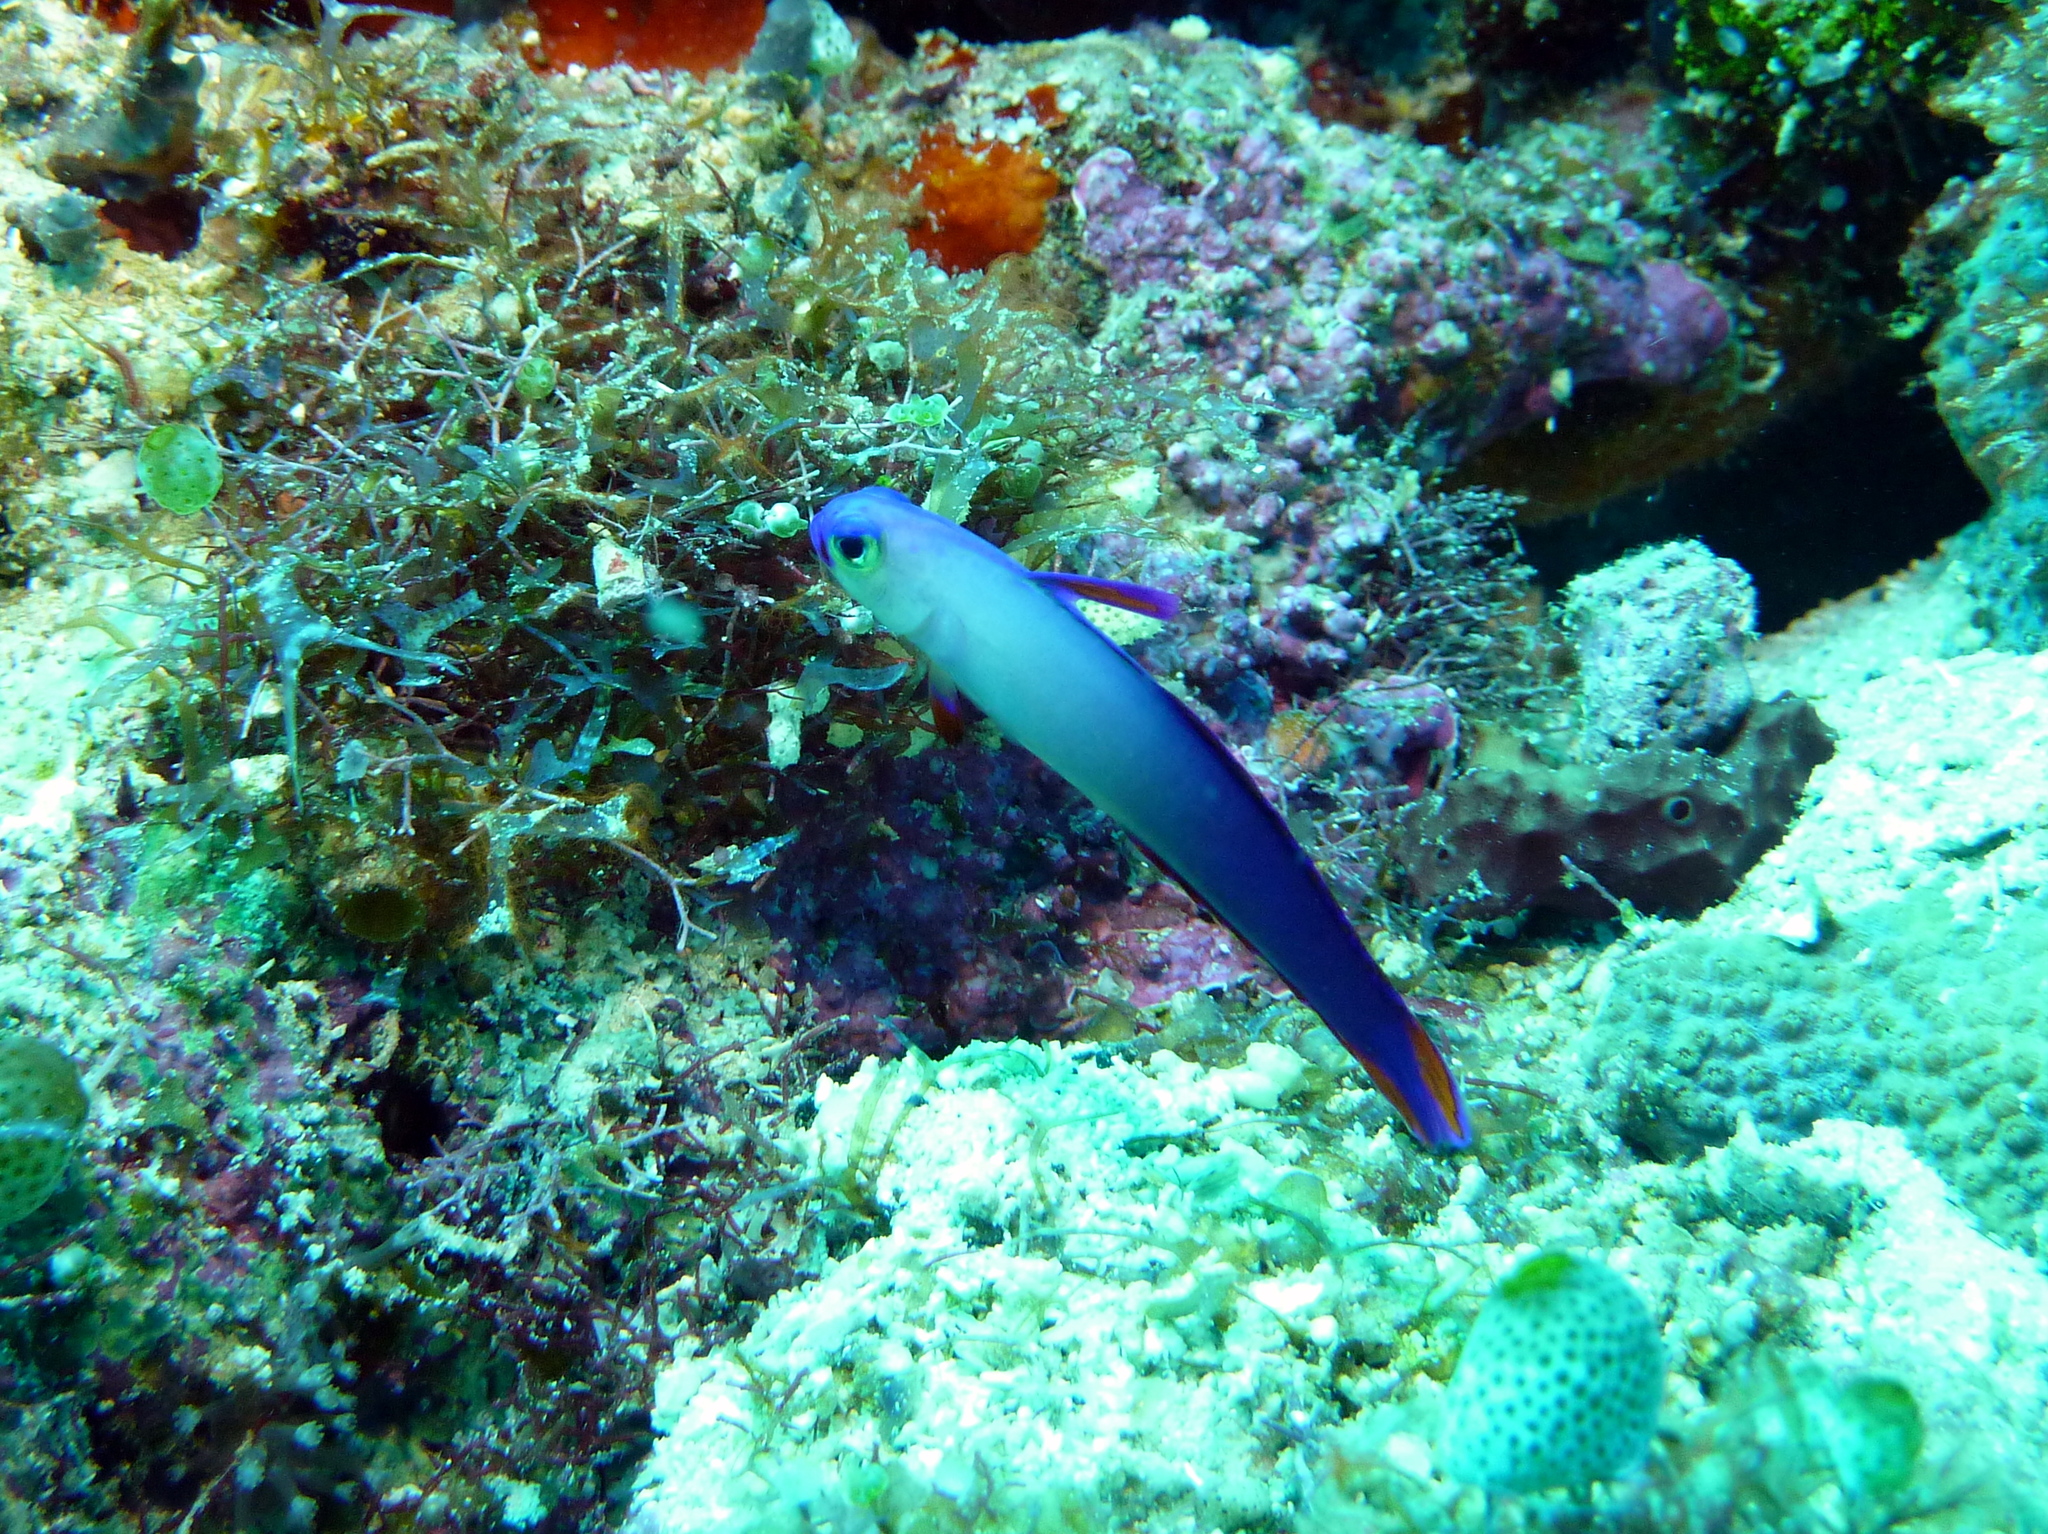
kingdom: Animalia
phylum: Chordata
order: Perciformes
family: Microdesmidae
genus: Nemateleotris
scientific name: Nemateleotris decora
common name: Elegant firefish
